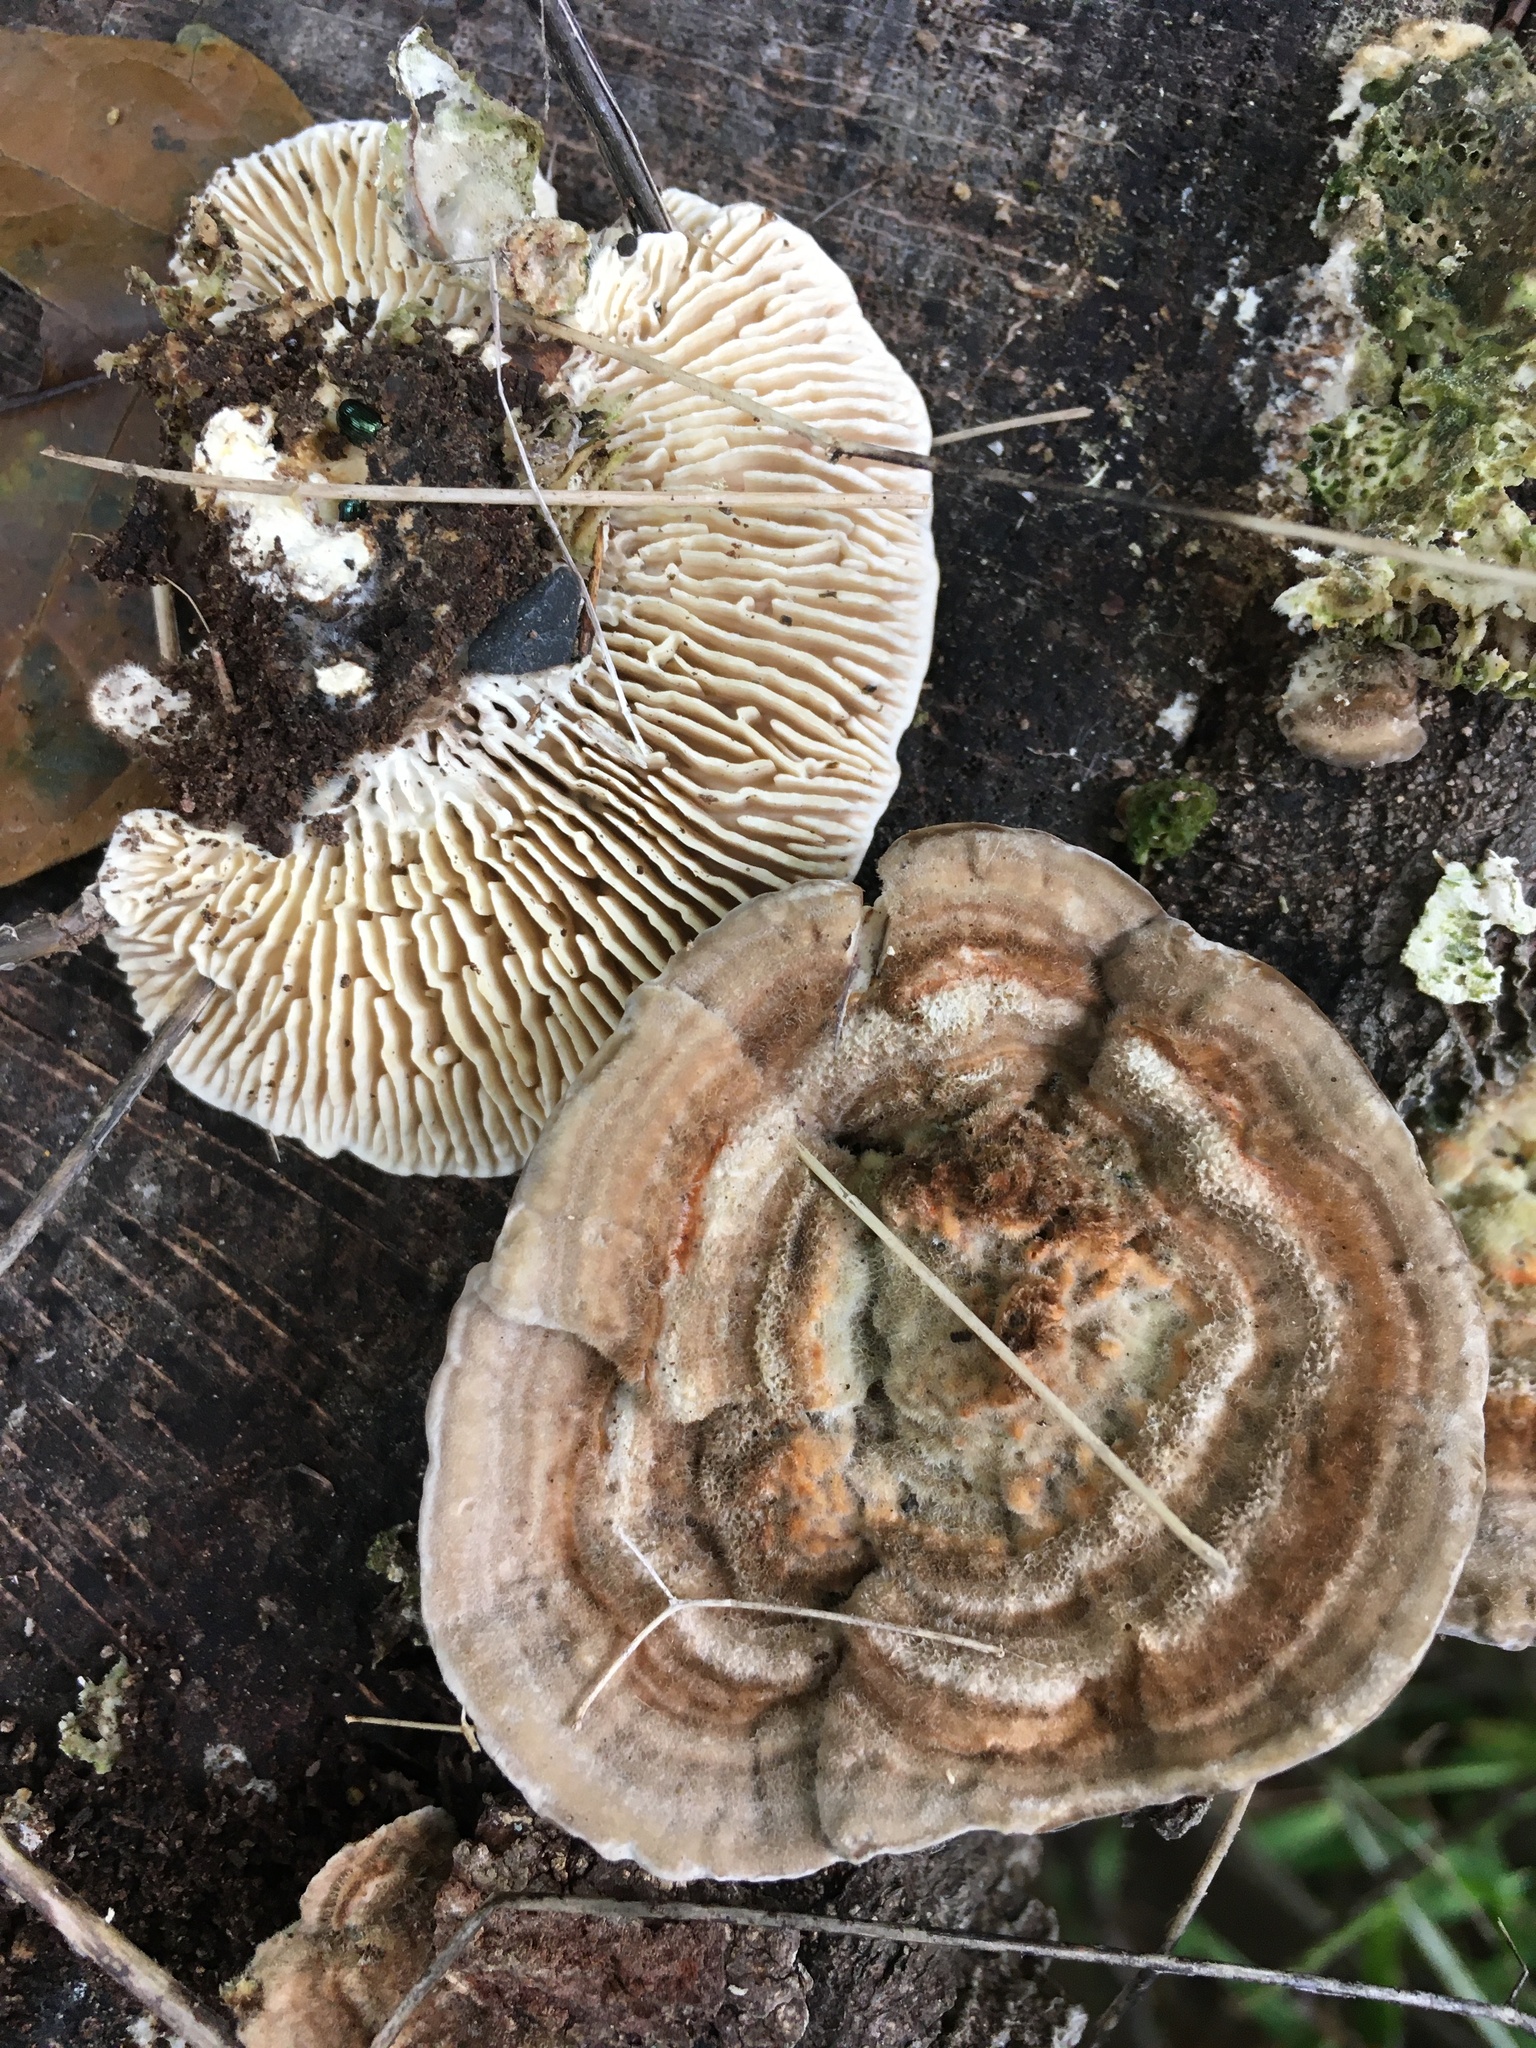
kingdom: Fungi
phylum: Basidiomycota
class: Agaricomycetes
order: Polyporales
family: Polyporaceae
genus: Lenzites
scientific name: Lenzites betulinus
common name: Birch mazegill
